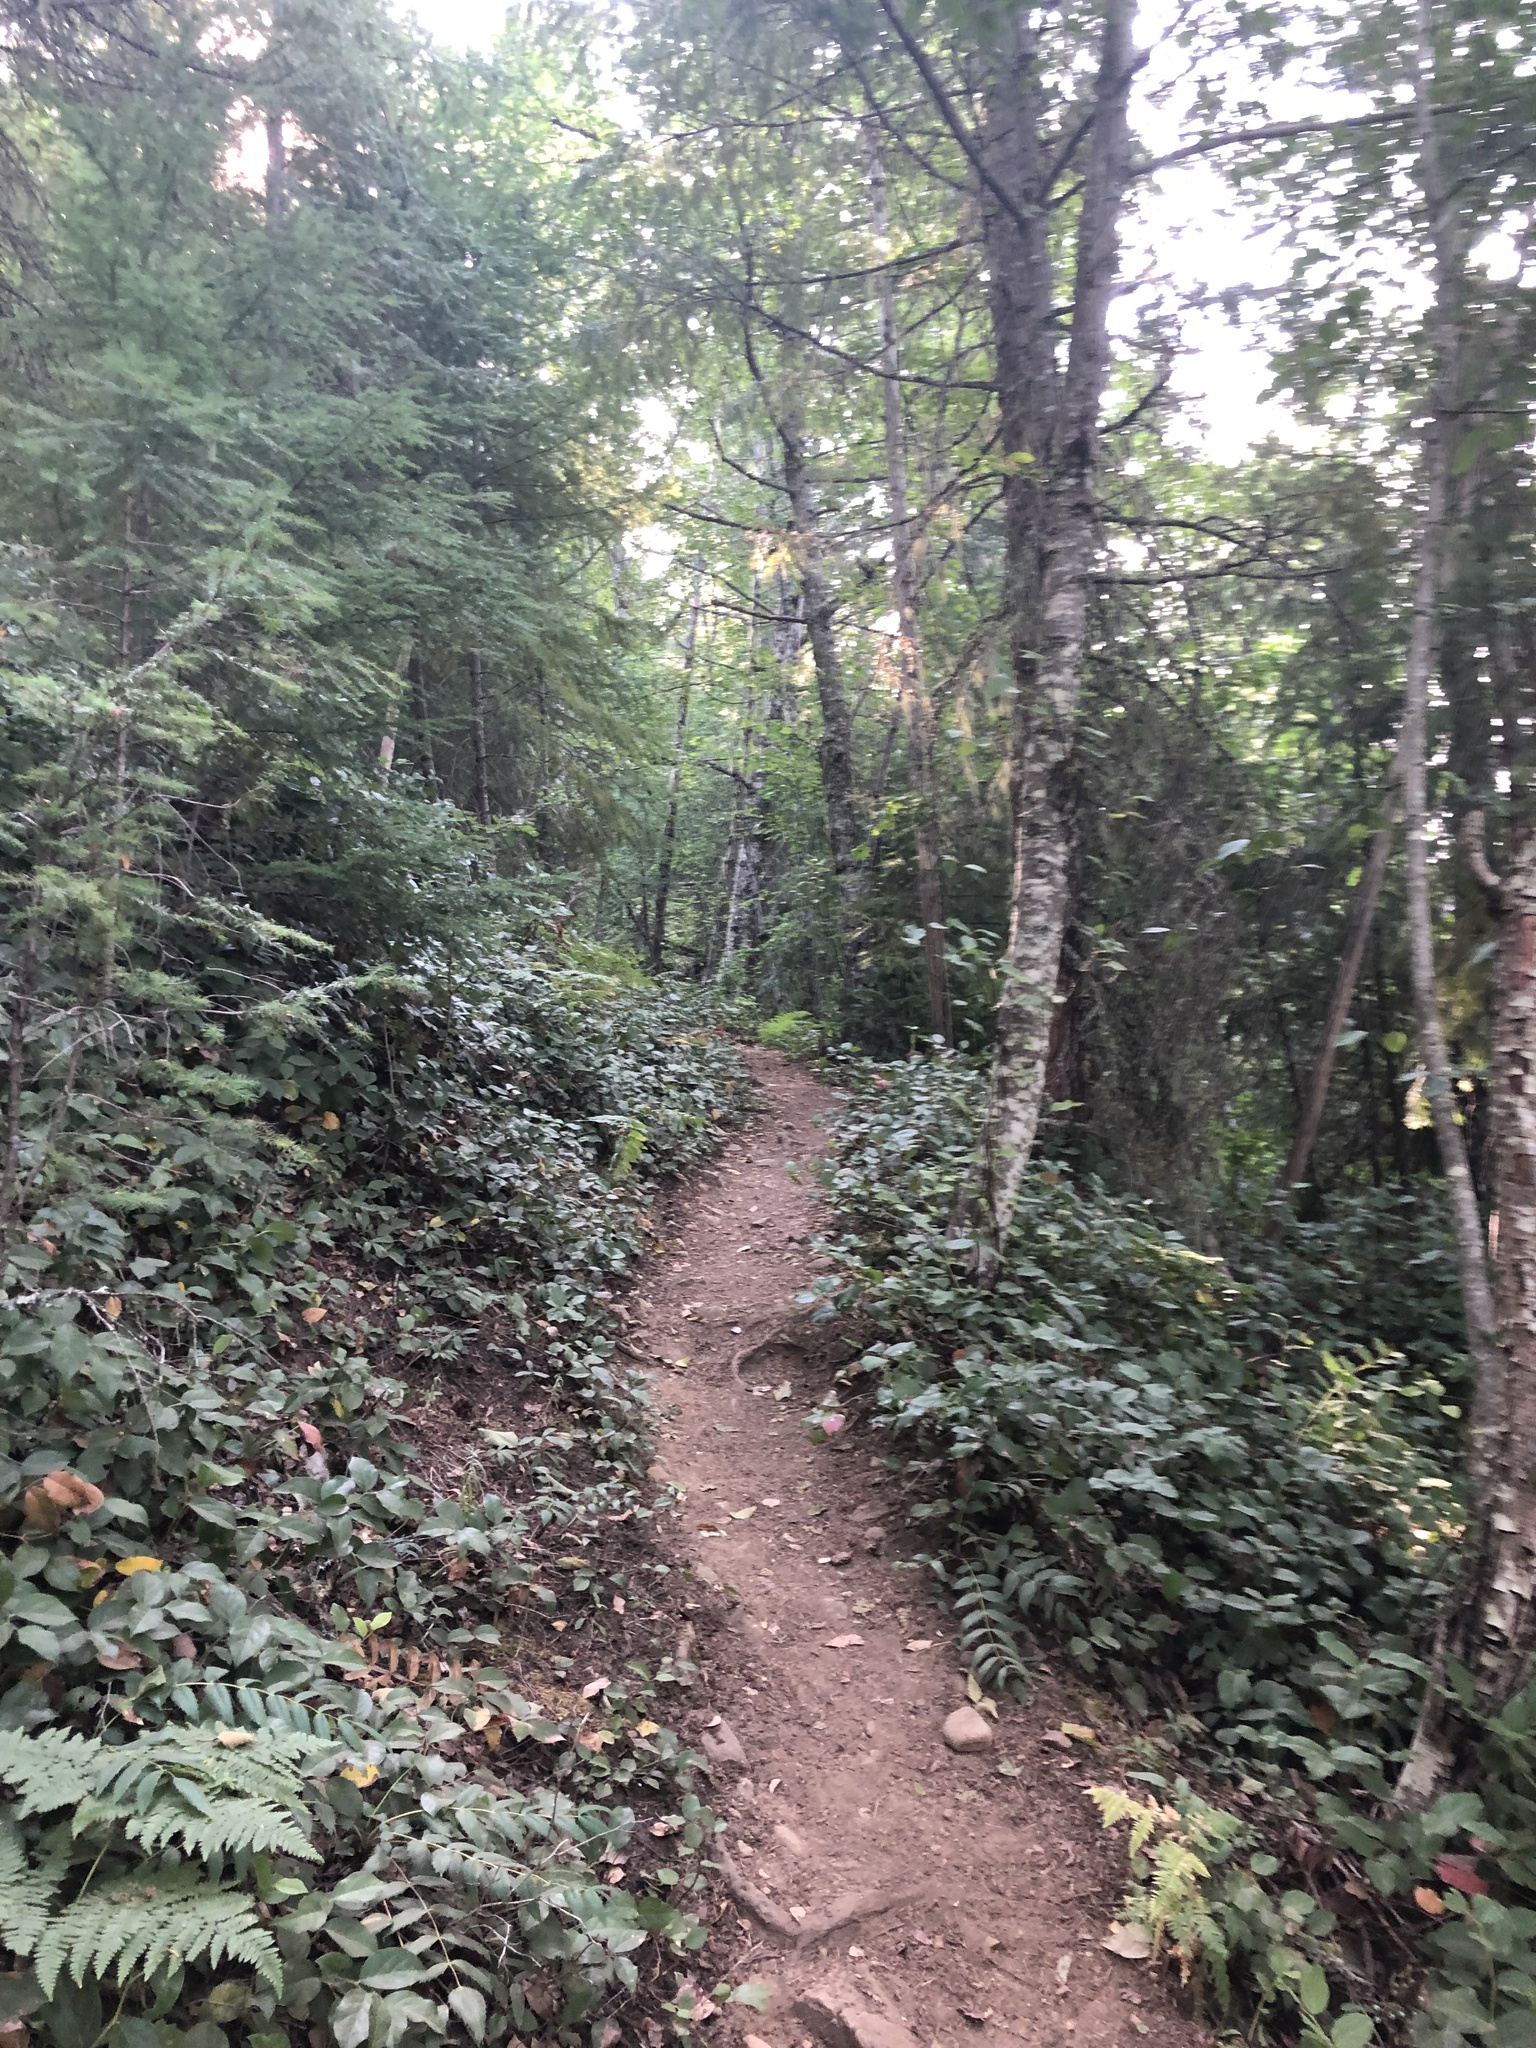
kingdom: Plantae
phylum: Tracheophyta
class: Magnoliopsida
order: Ericales
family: Ericaceae
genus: Gaultheria
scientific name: Gaultheria shallon
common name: Shallon
